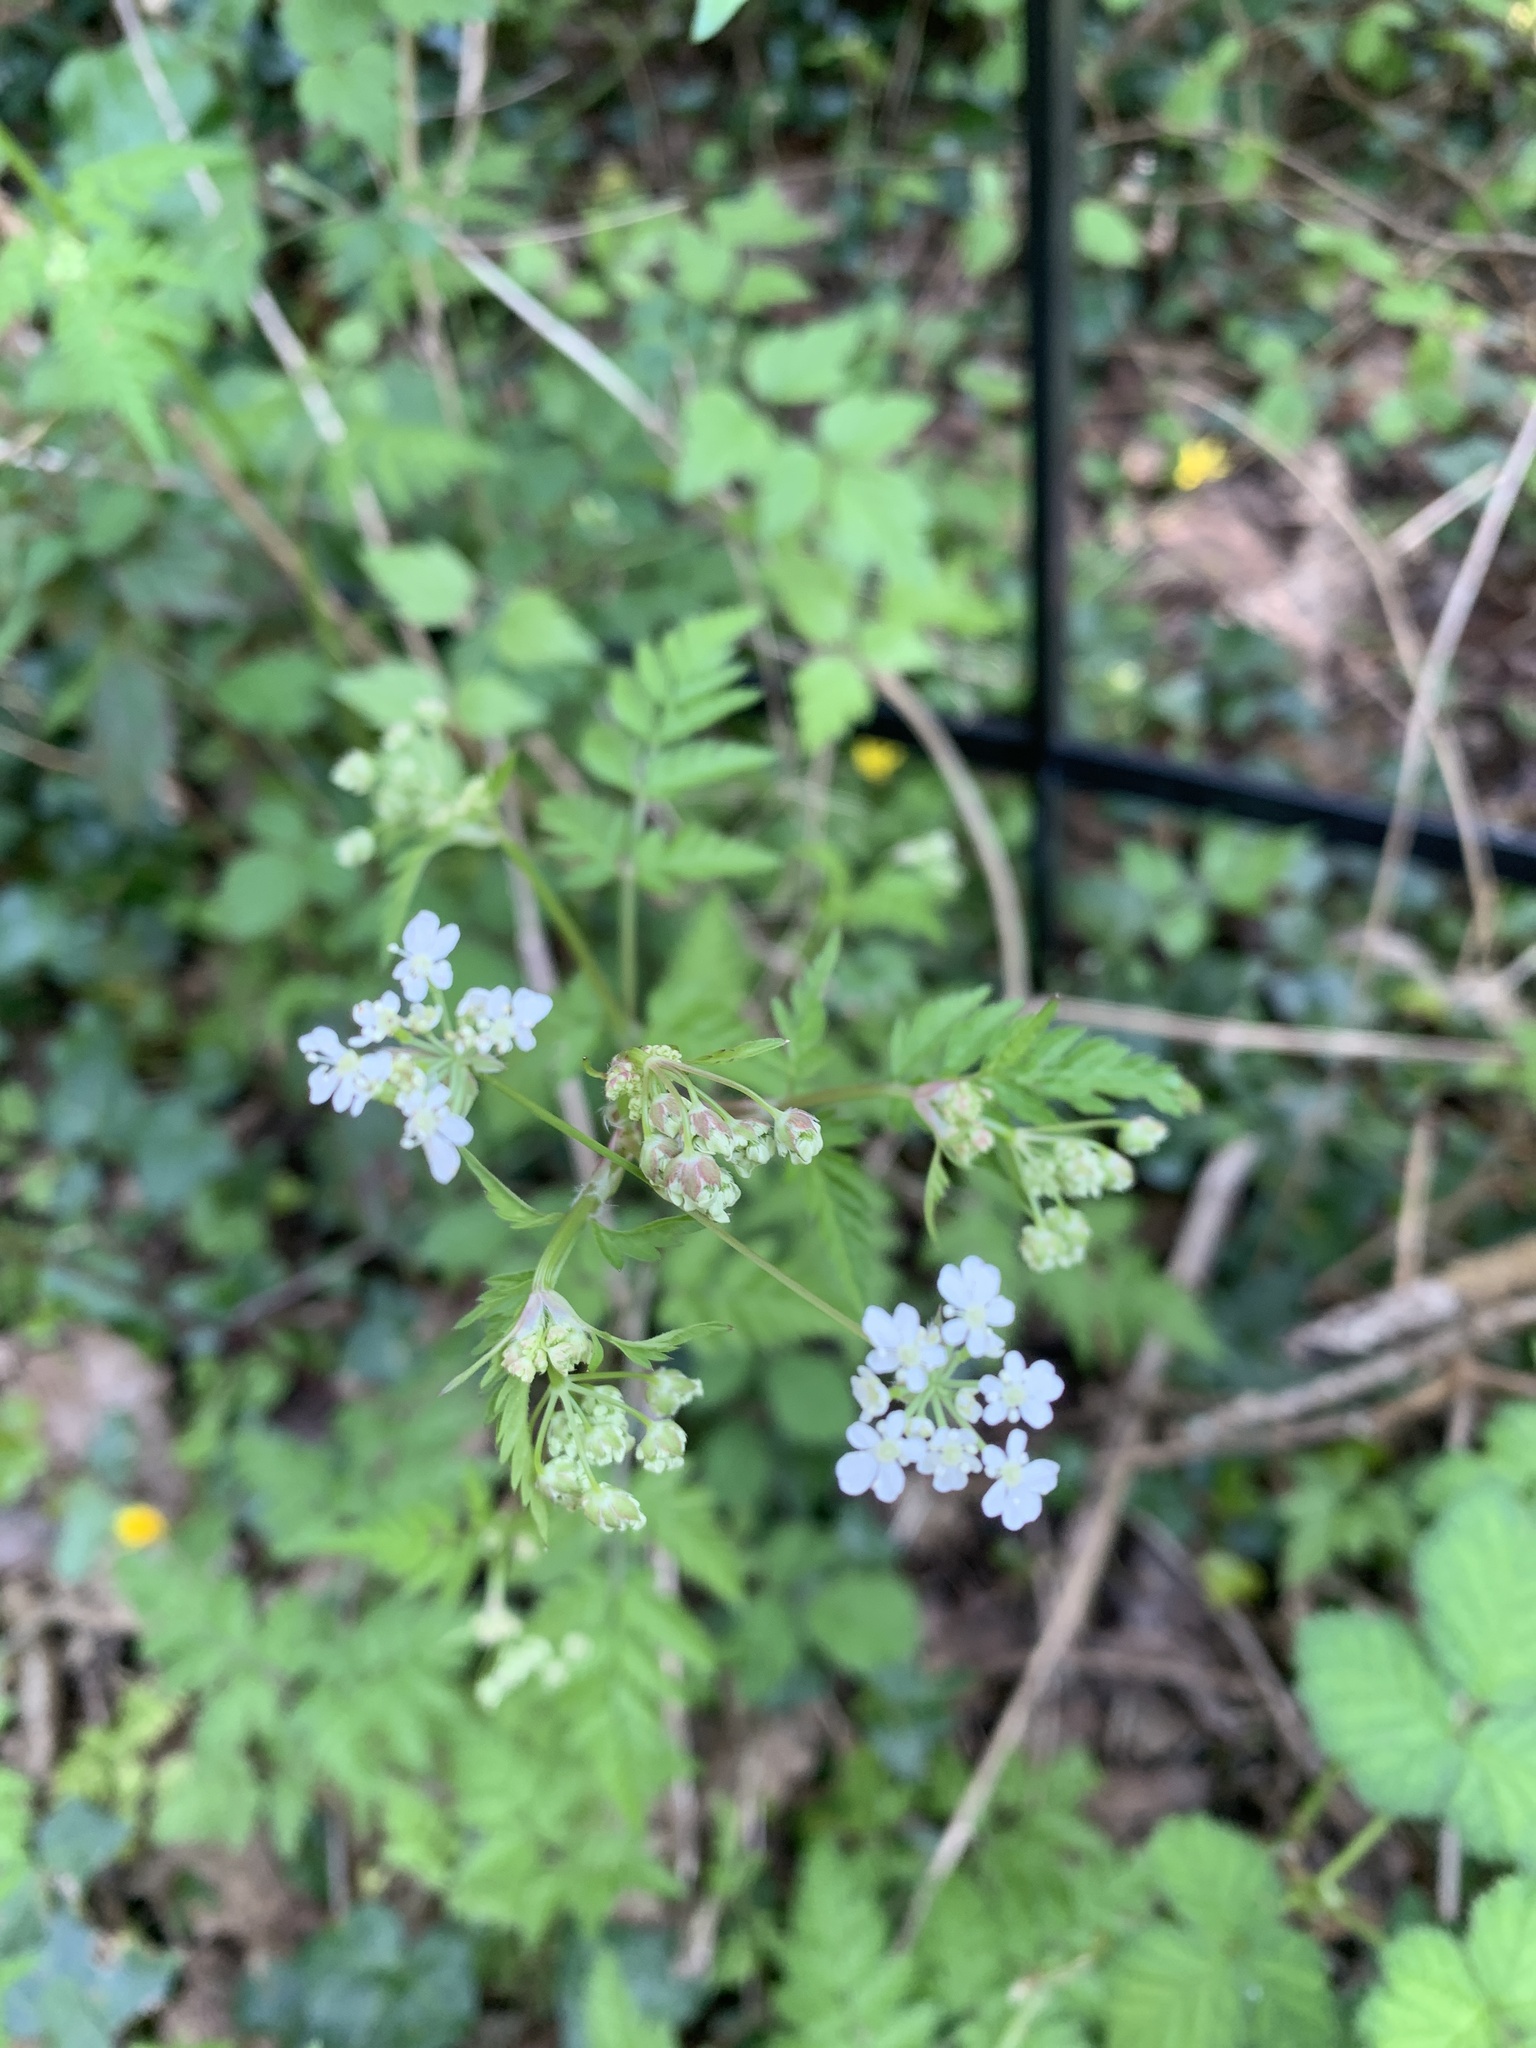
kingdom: Plantae
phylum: Tracheophyta
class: Magnoliopsida
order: Apiales
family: Apiaceae
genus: Anthriscus
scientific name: Anthriscus sylvestris
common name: Cow parsley
